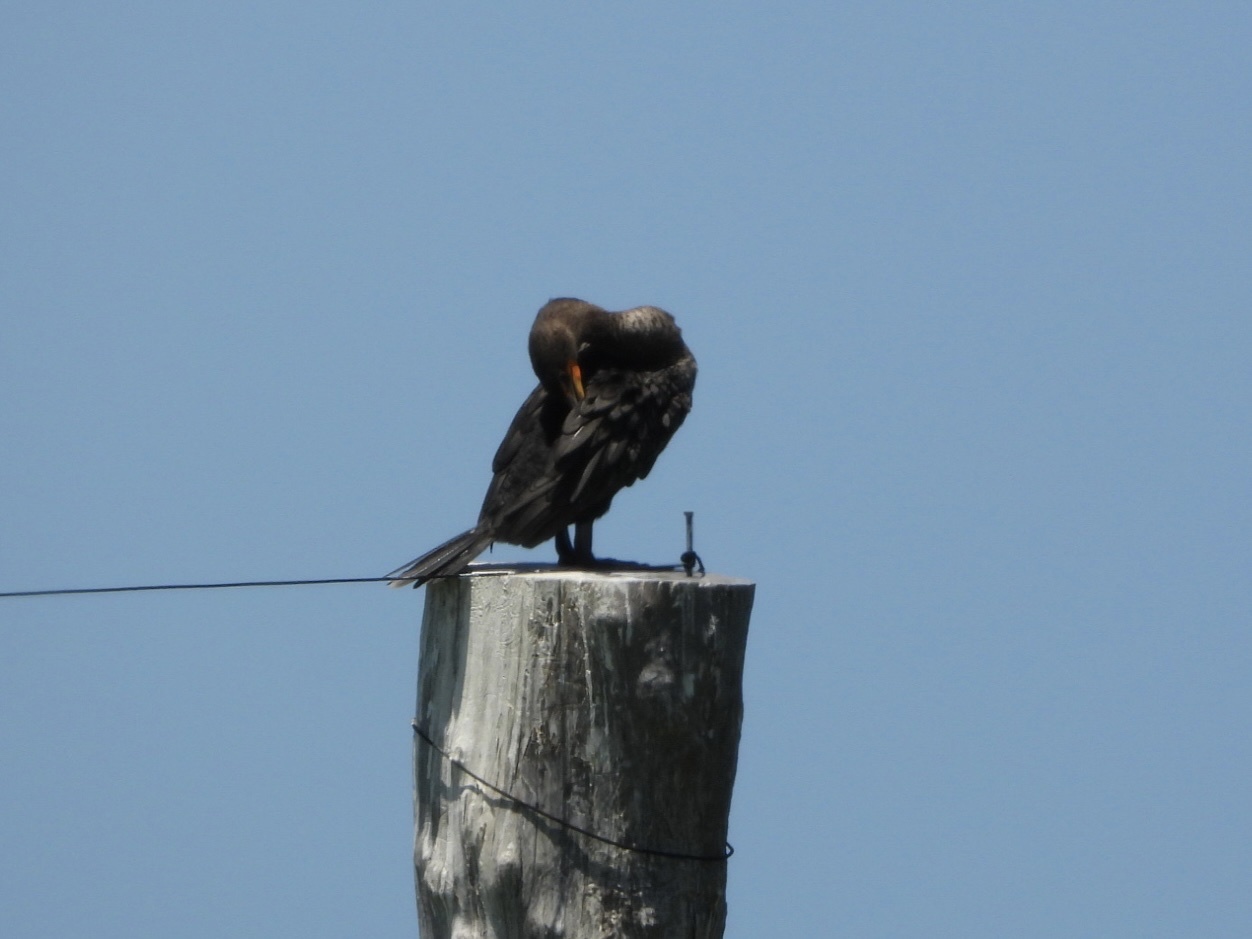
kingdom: Animalia
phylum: Chordata
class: Aves
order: Suliformes
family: Phalacrocoracidae
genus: Phalacrocorax
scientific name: Phalacrocorax auritus
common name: Double-crested cormorant
